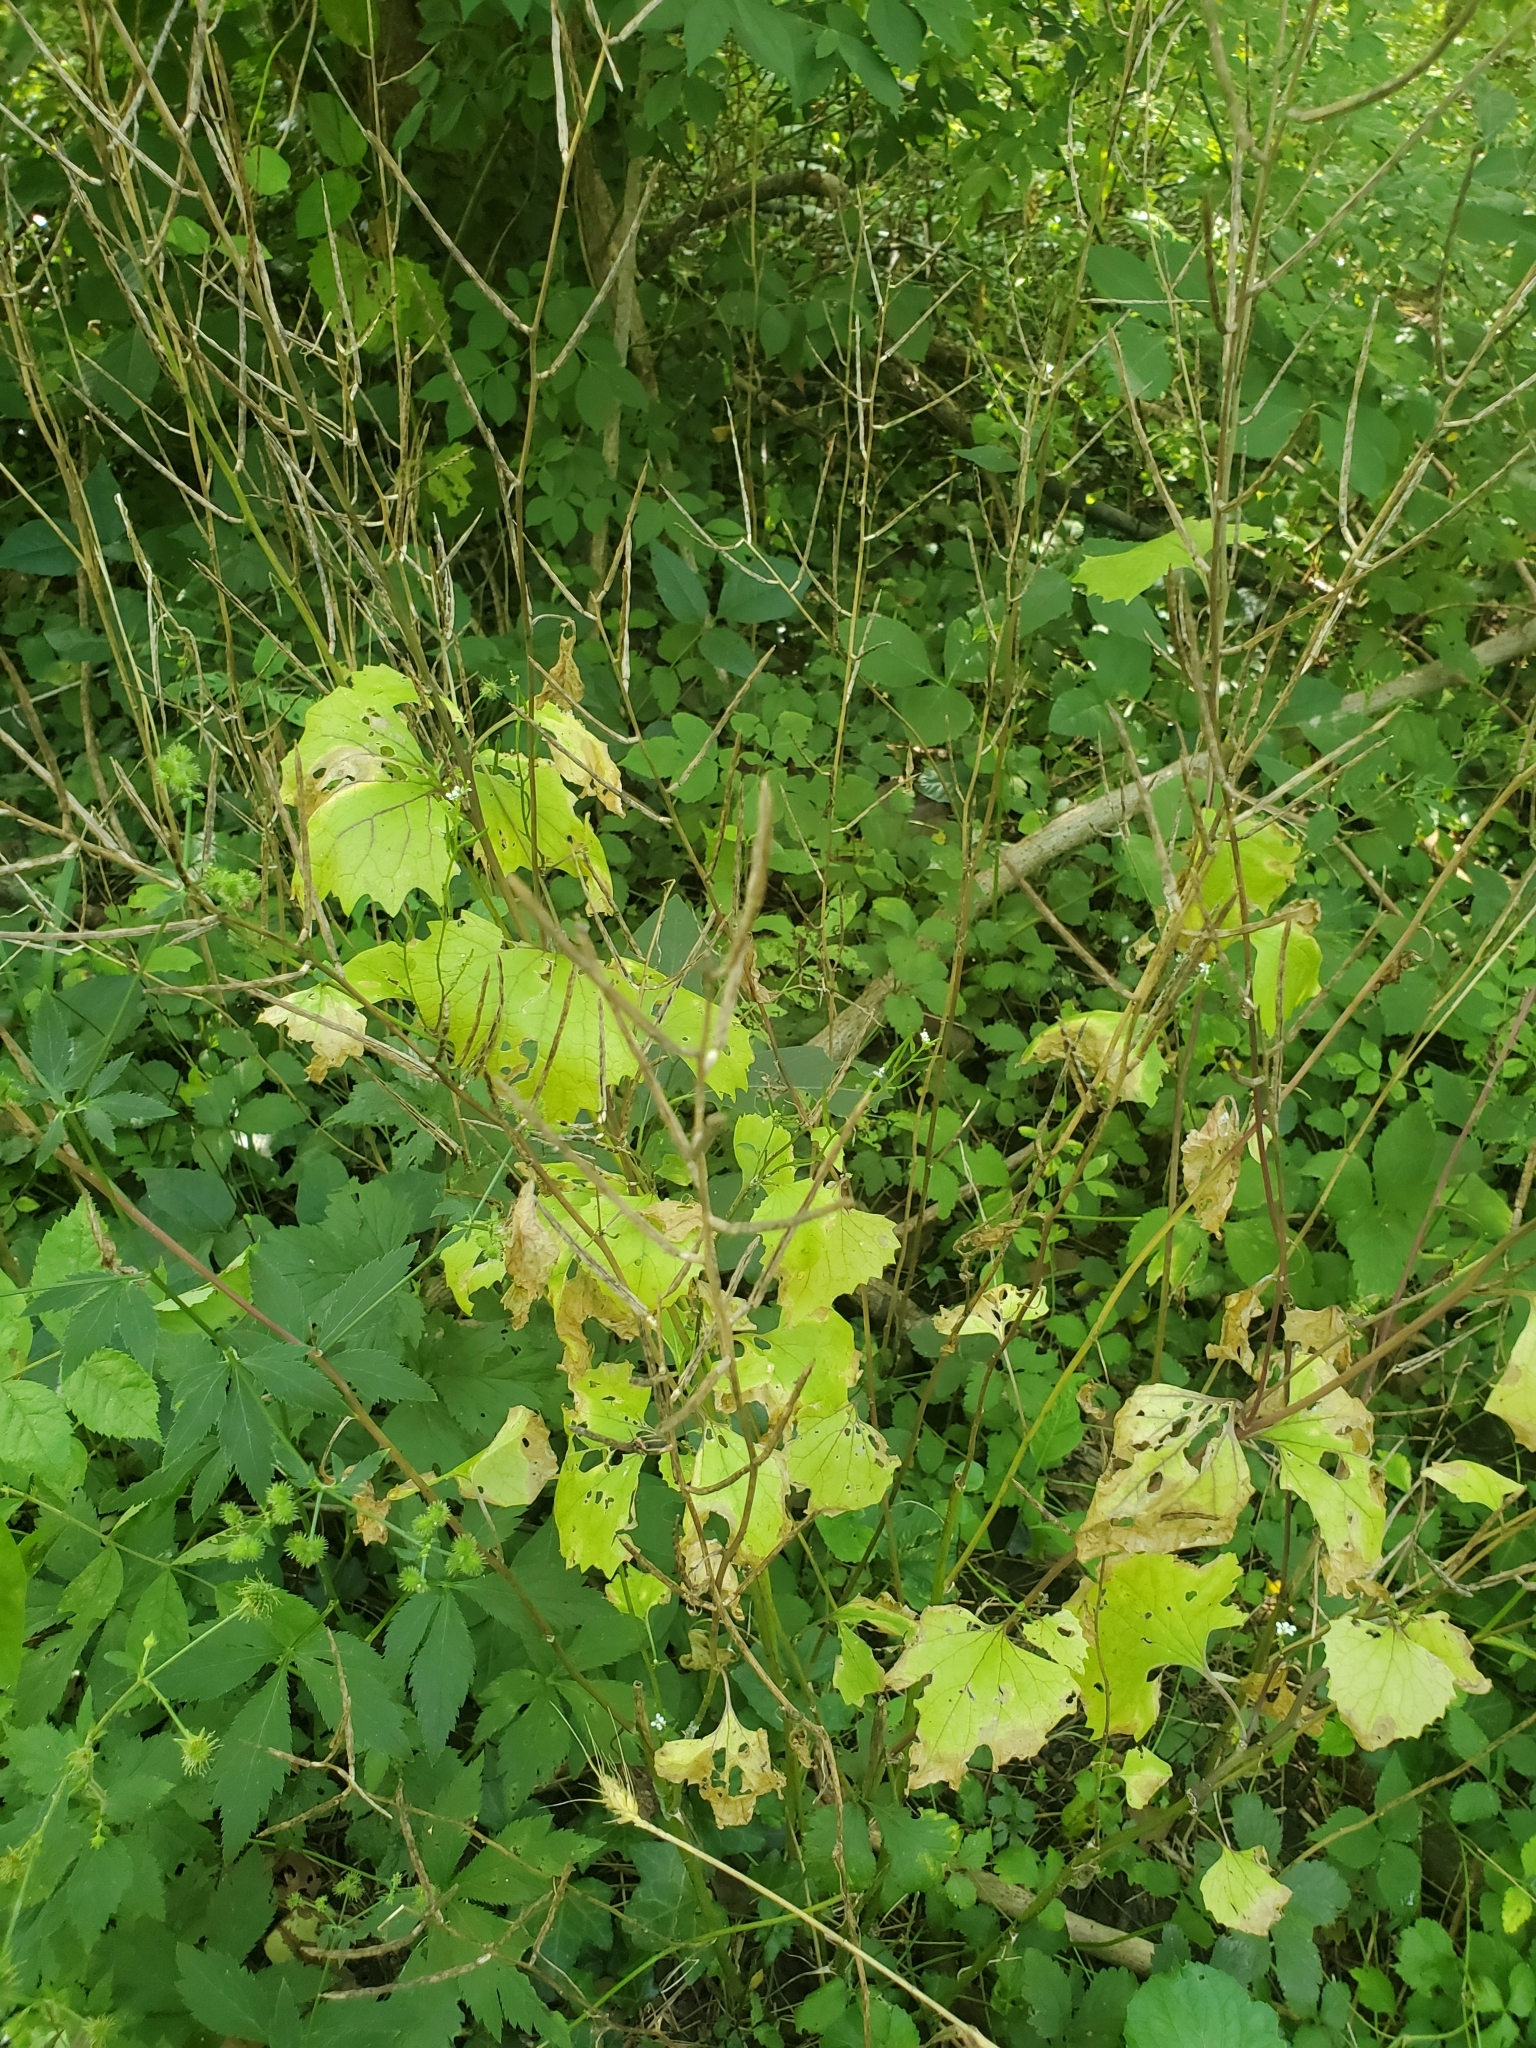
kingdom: Plantae
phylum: Tracheophyta
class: Magnoliopsida
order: Brassicales
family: Brassicaceae
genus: Alliaria
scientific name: Alliaria petiolata
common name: Garlic mustard
